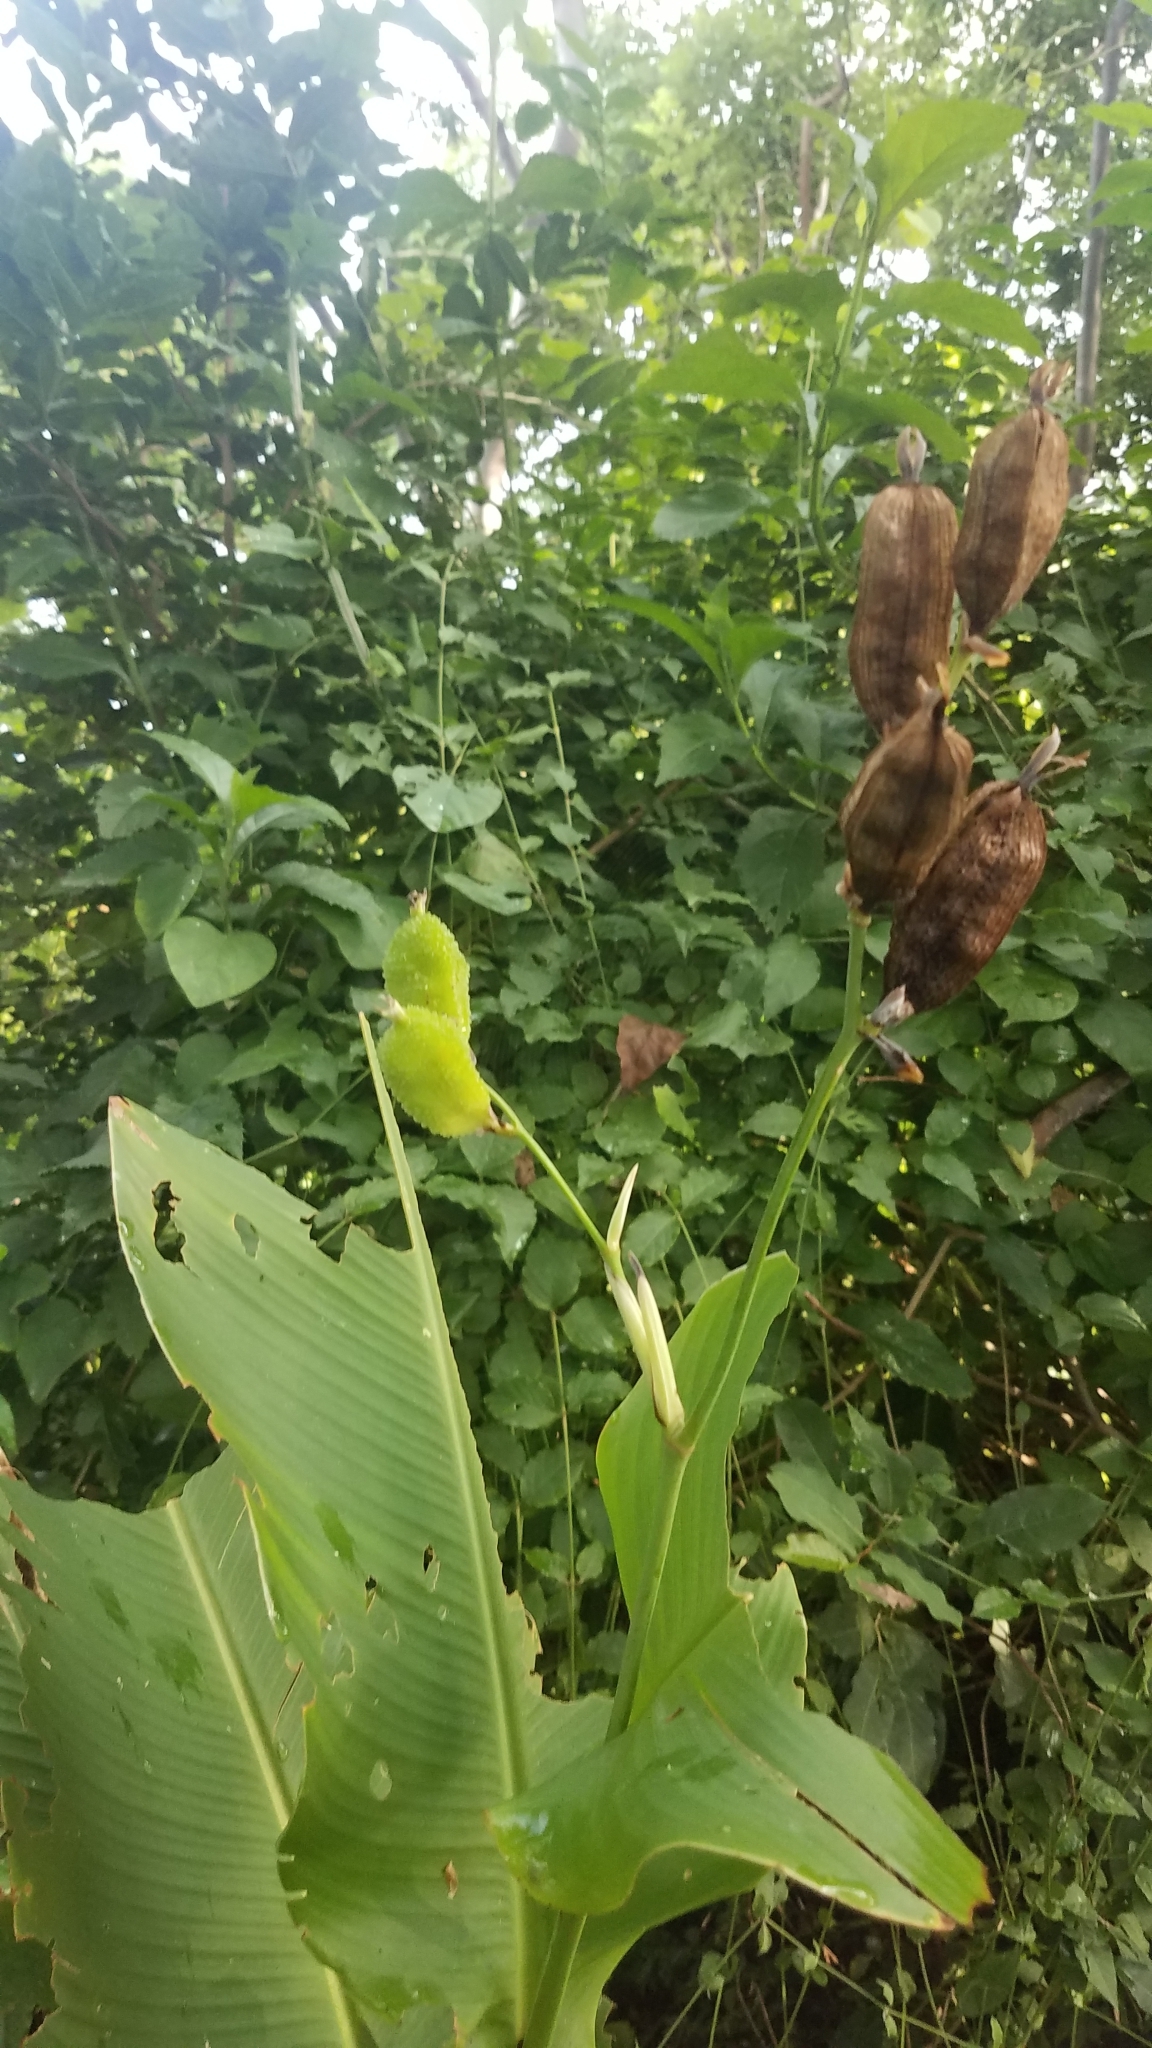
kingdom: Plantae
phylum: Tracheophyta
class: Liliopsida
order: Zingiberales
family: Cannaceae
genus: Canna
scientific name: Canna indica
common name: Indian shot
